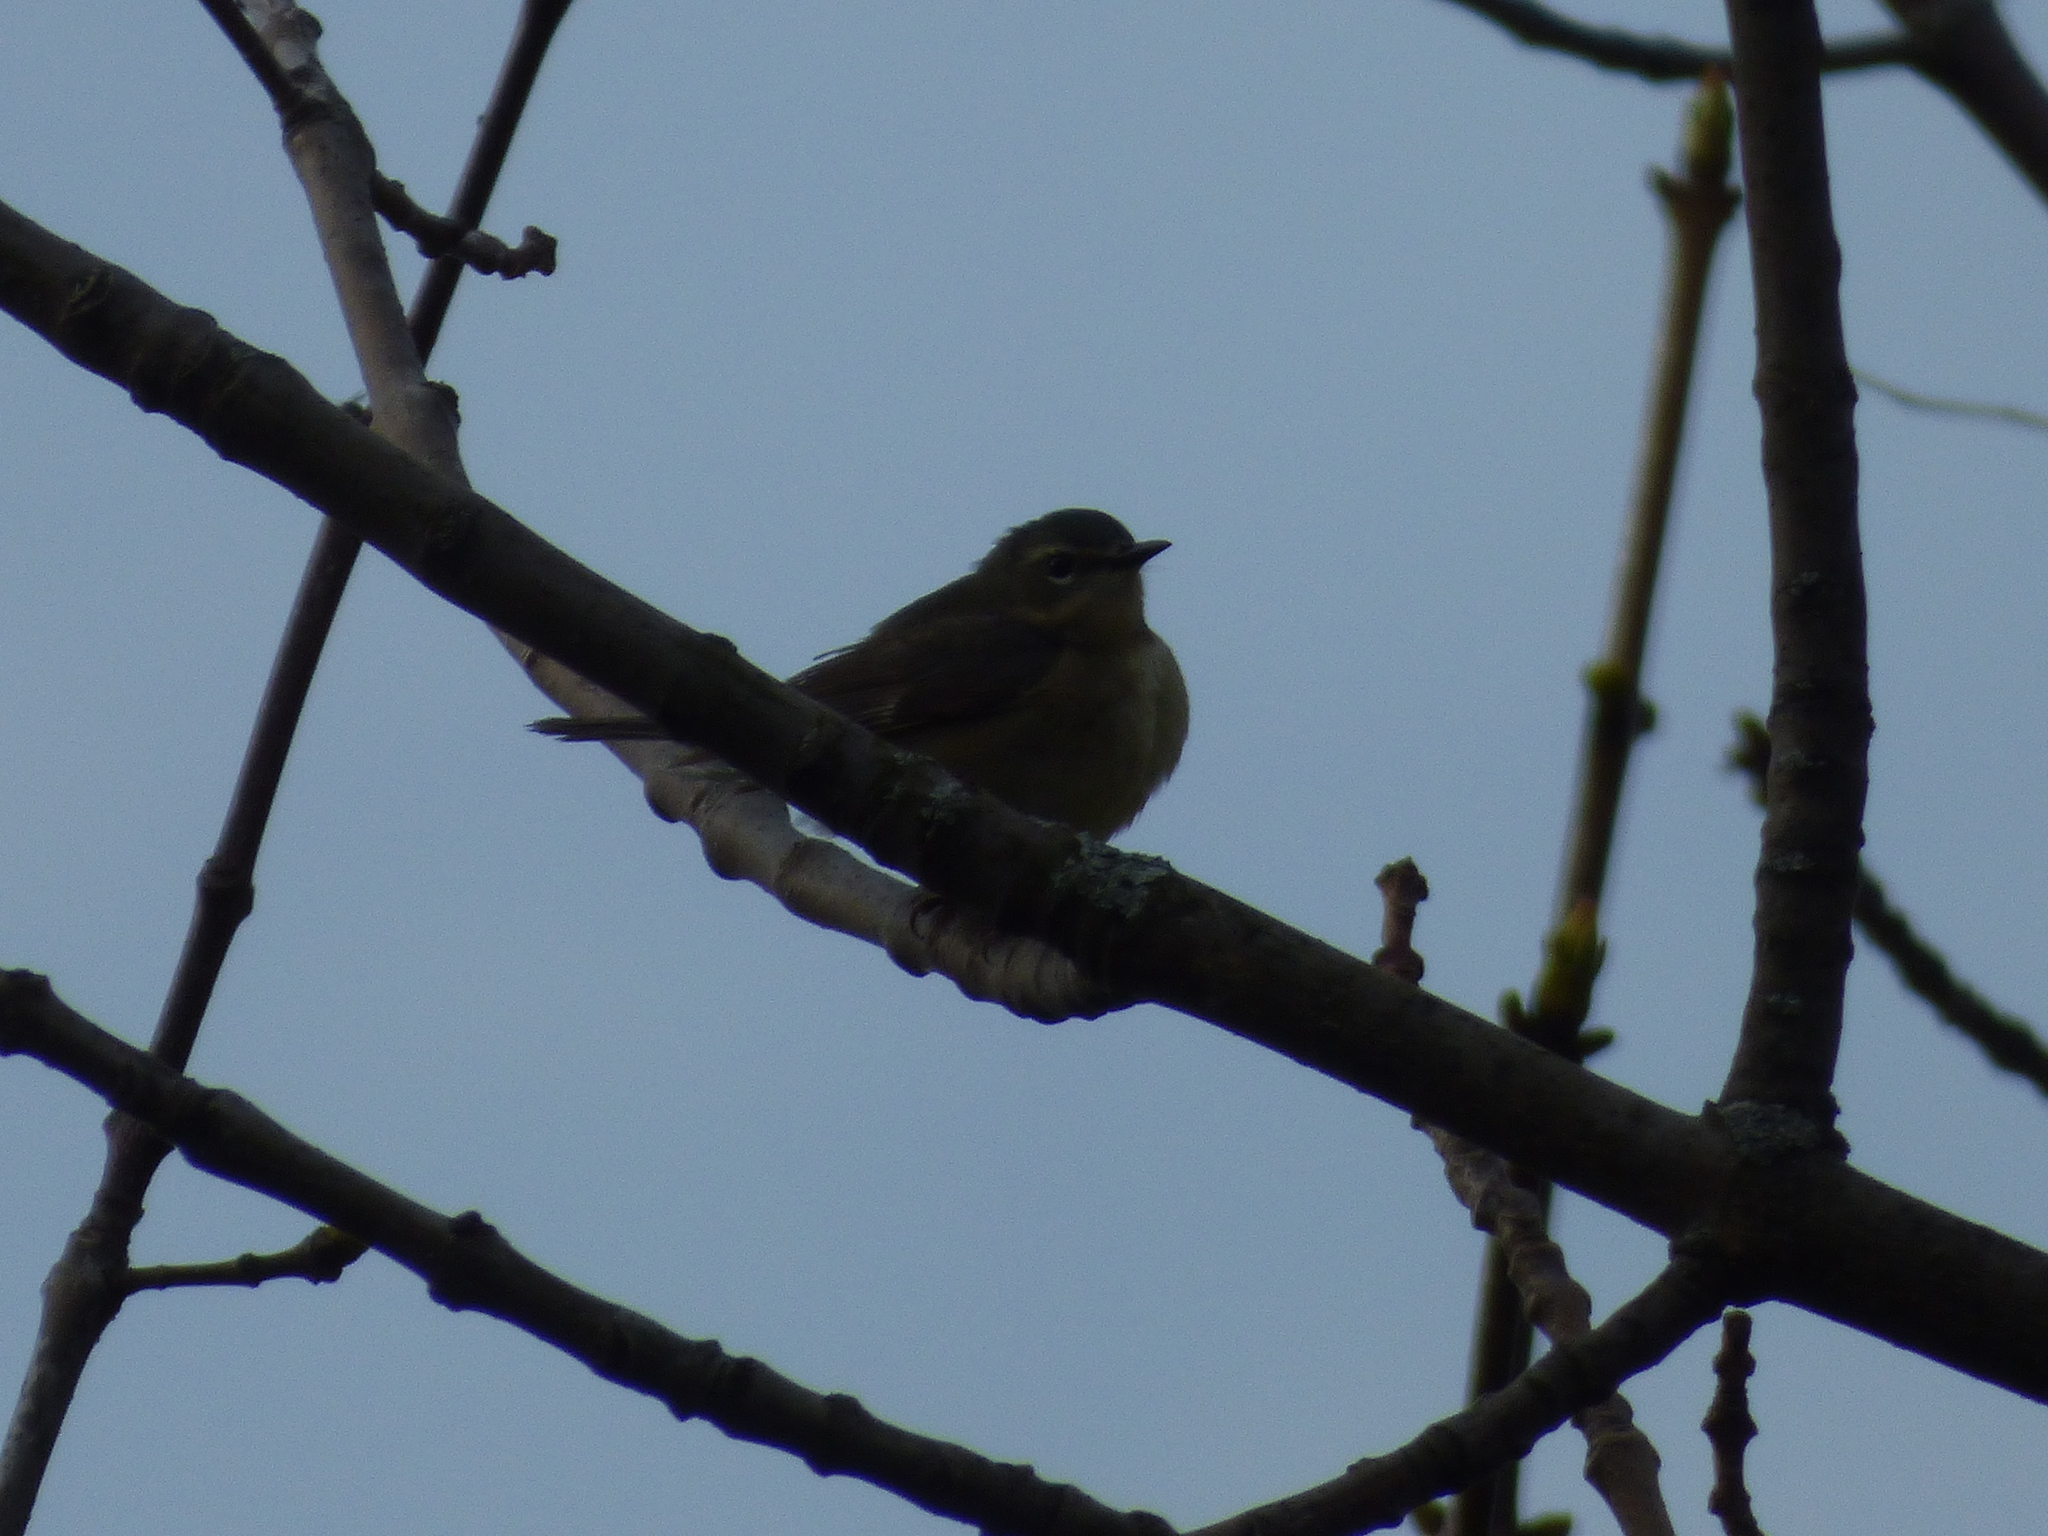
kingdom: Animalia
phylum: Chordata
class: Aves
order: Passeriformes
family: Parulidae
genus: Setophaga
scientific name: Setophaga caerulescens
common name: Black-throated blue warbler
